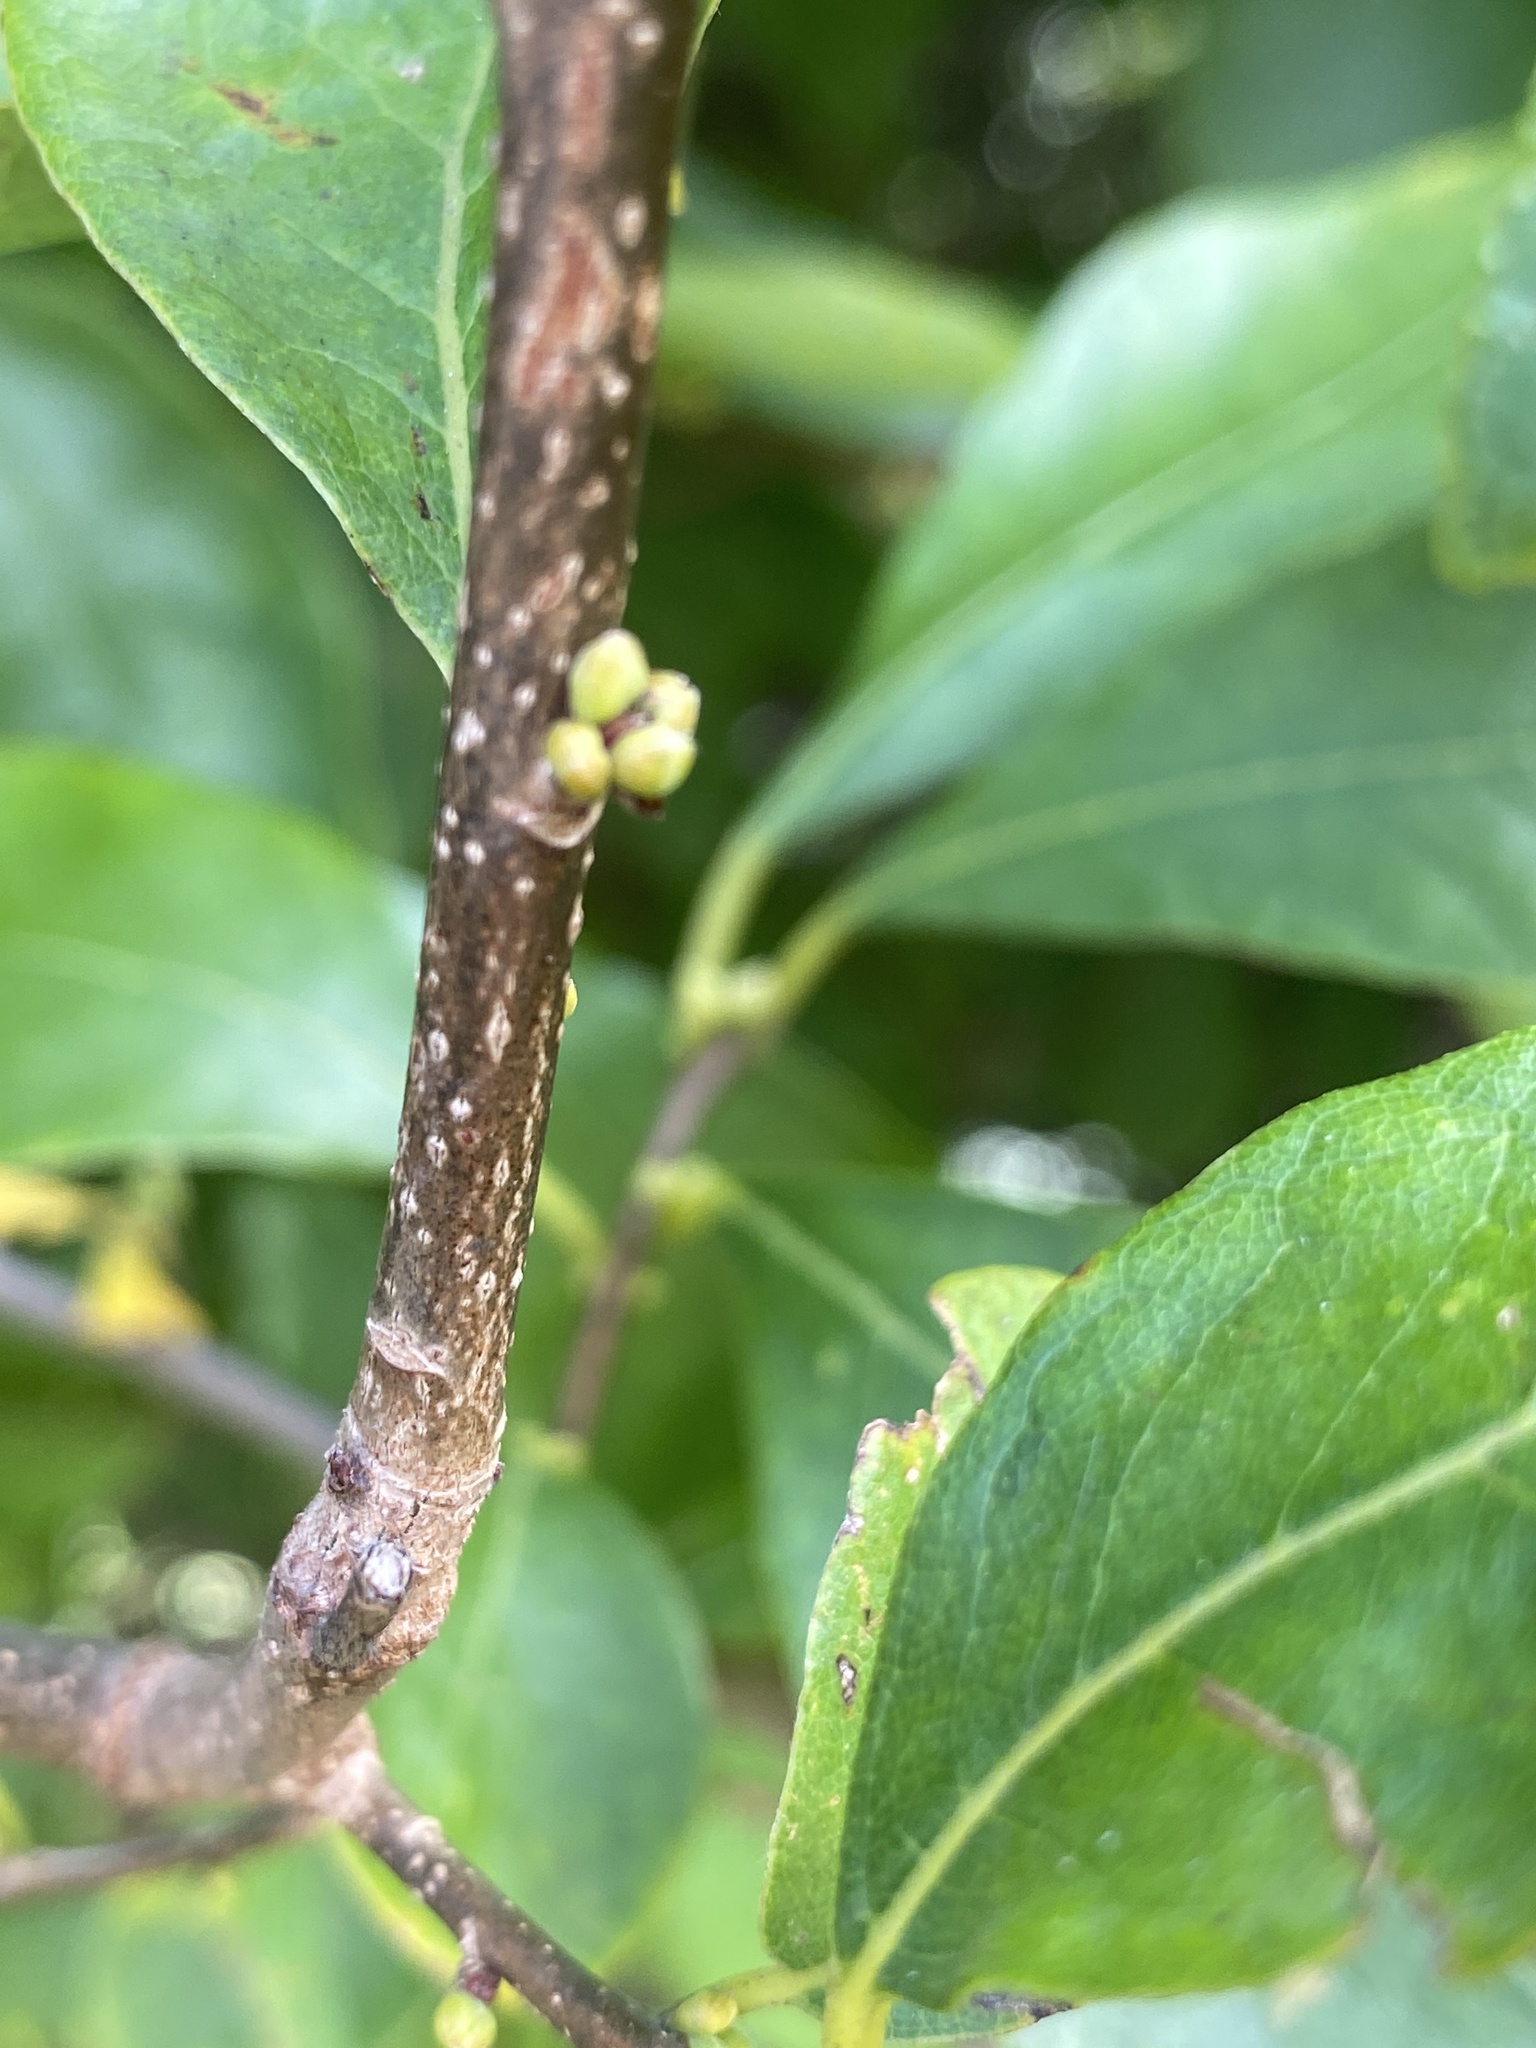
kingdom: Plantae
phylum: Tracheophyta
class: Magnoliopsida
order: Laurales
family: Lauraceae
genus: Lindera
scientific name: Lindera benzoin
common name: Spicebush
